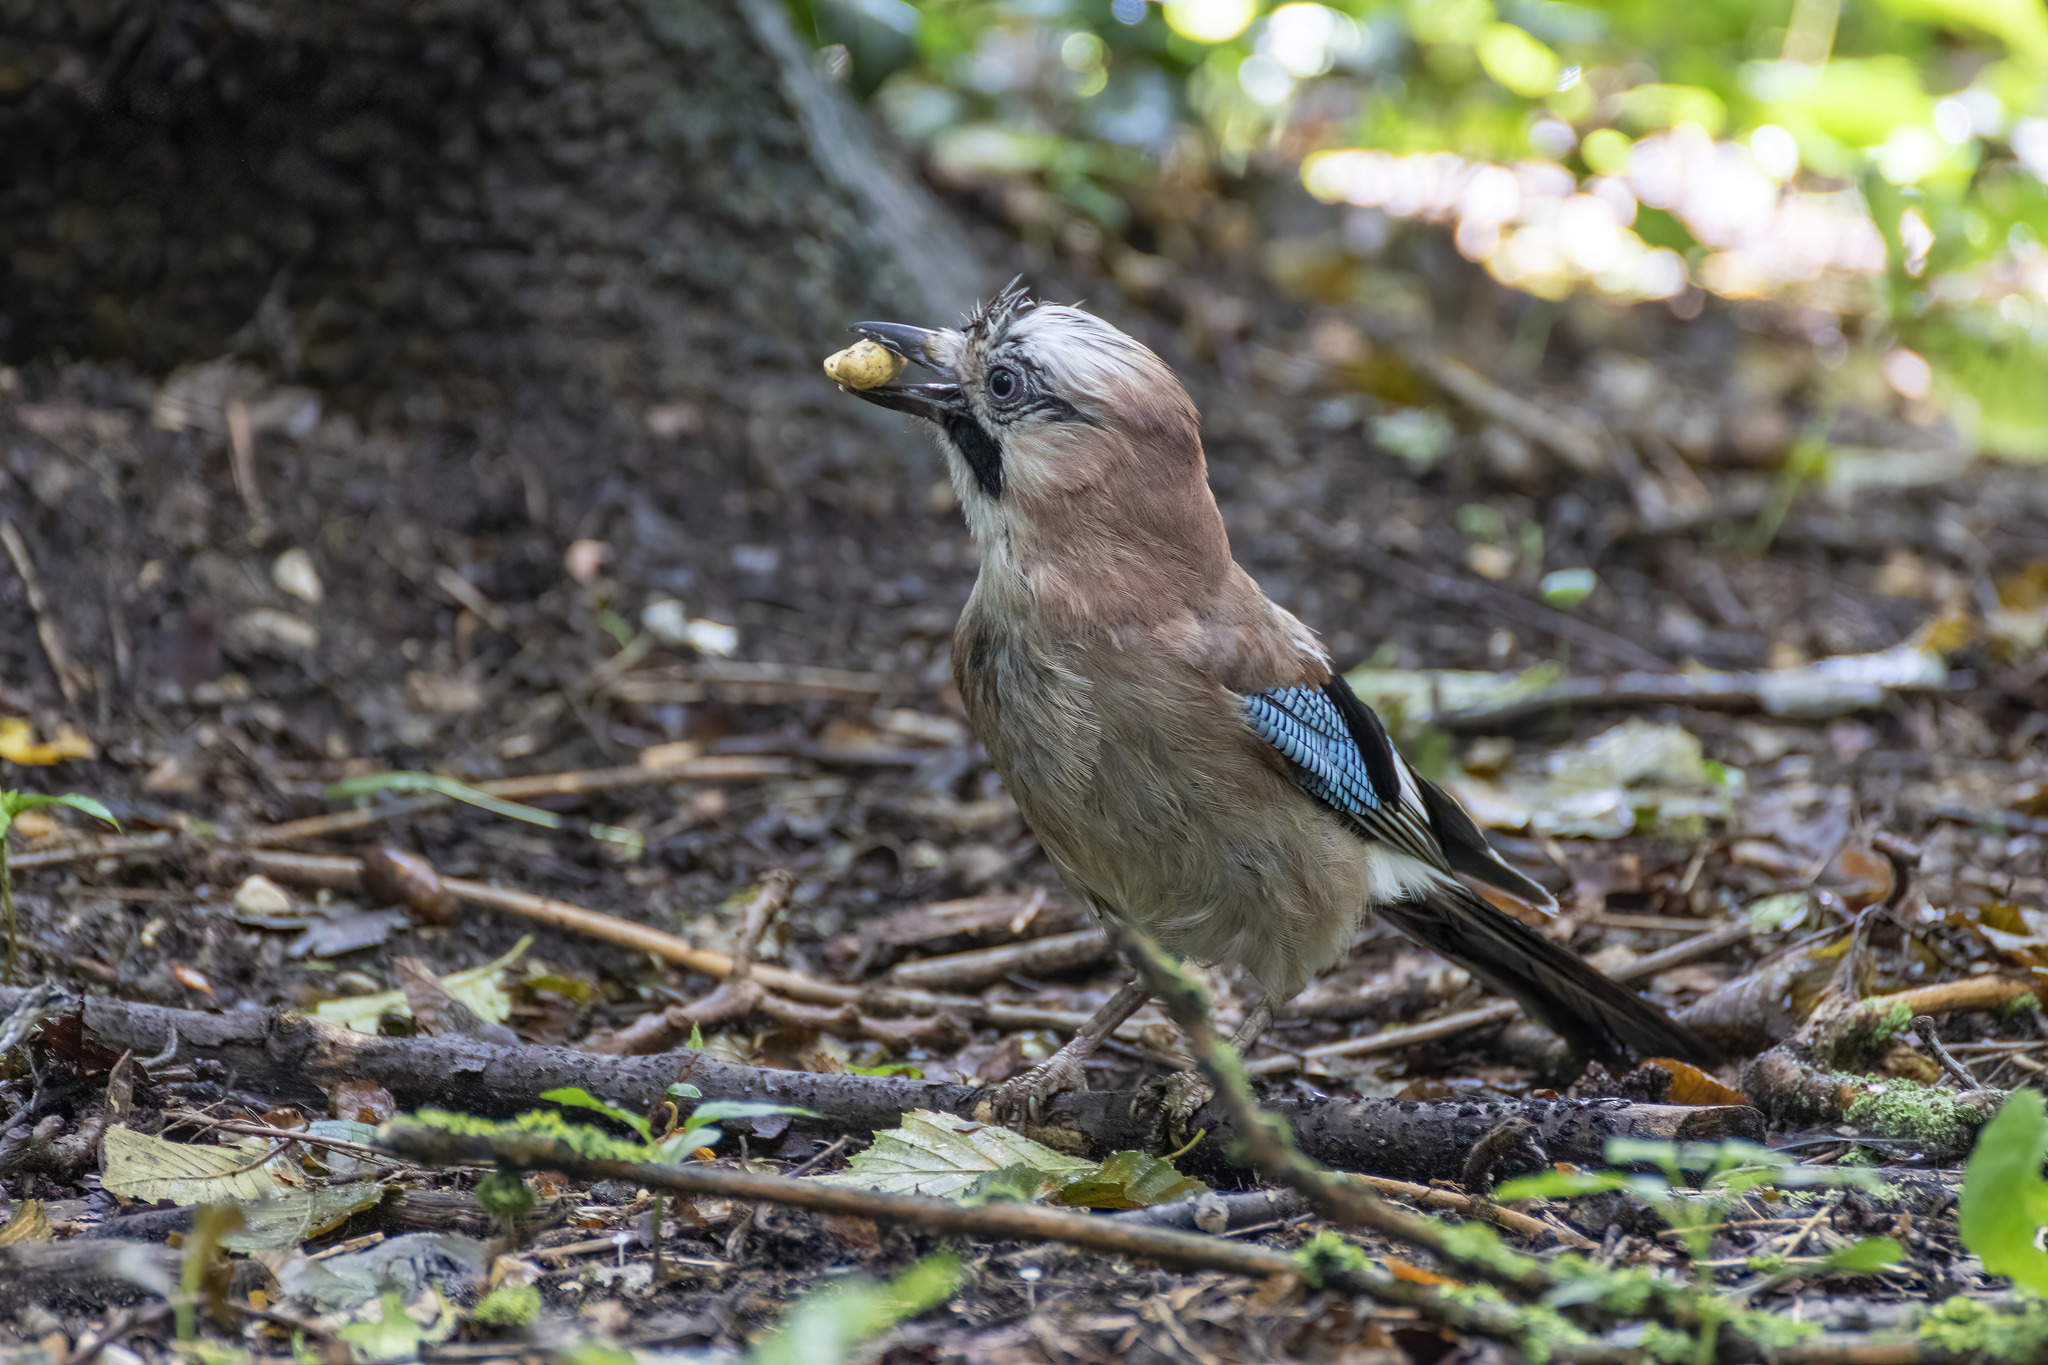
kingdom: Animalia
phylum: Chordata
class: Aves
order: Passeriformes
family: Corvidae
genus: Garrulus
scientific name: Garrulus glandarius
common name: Eurasian jay
